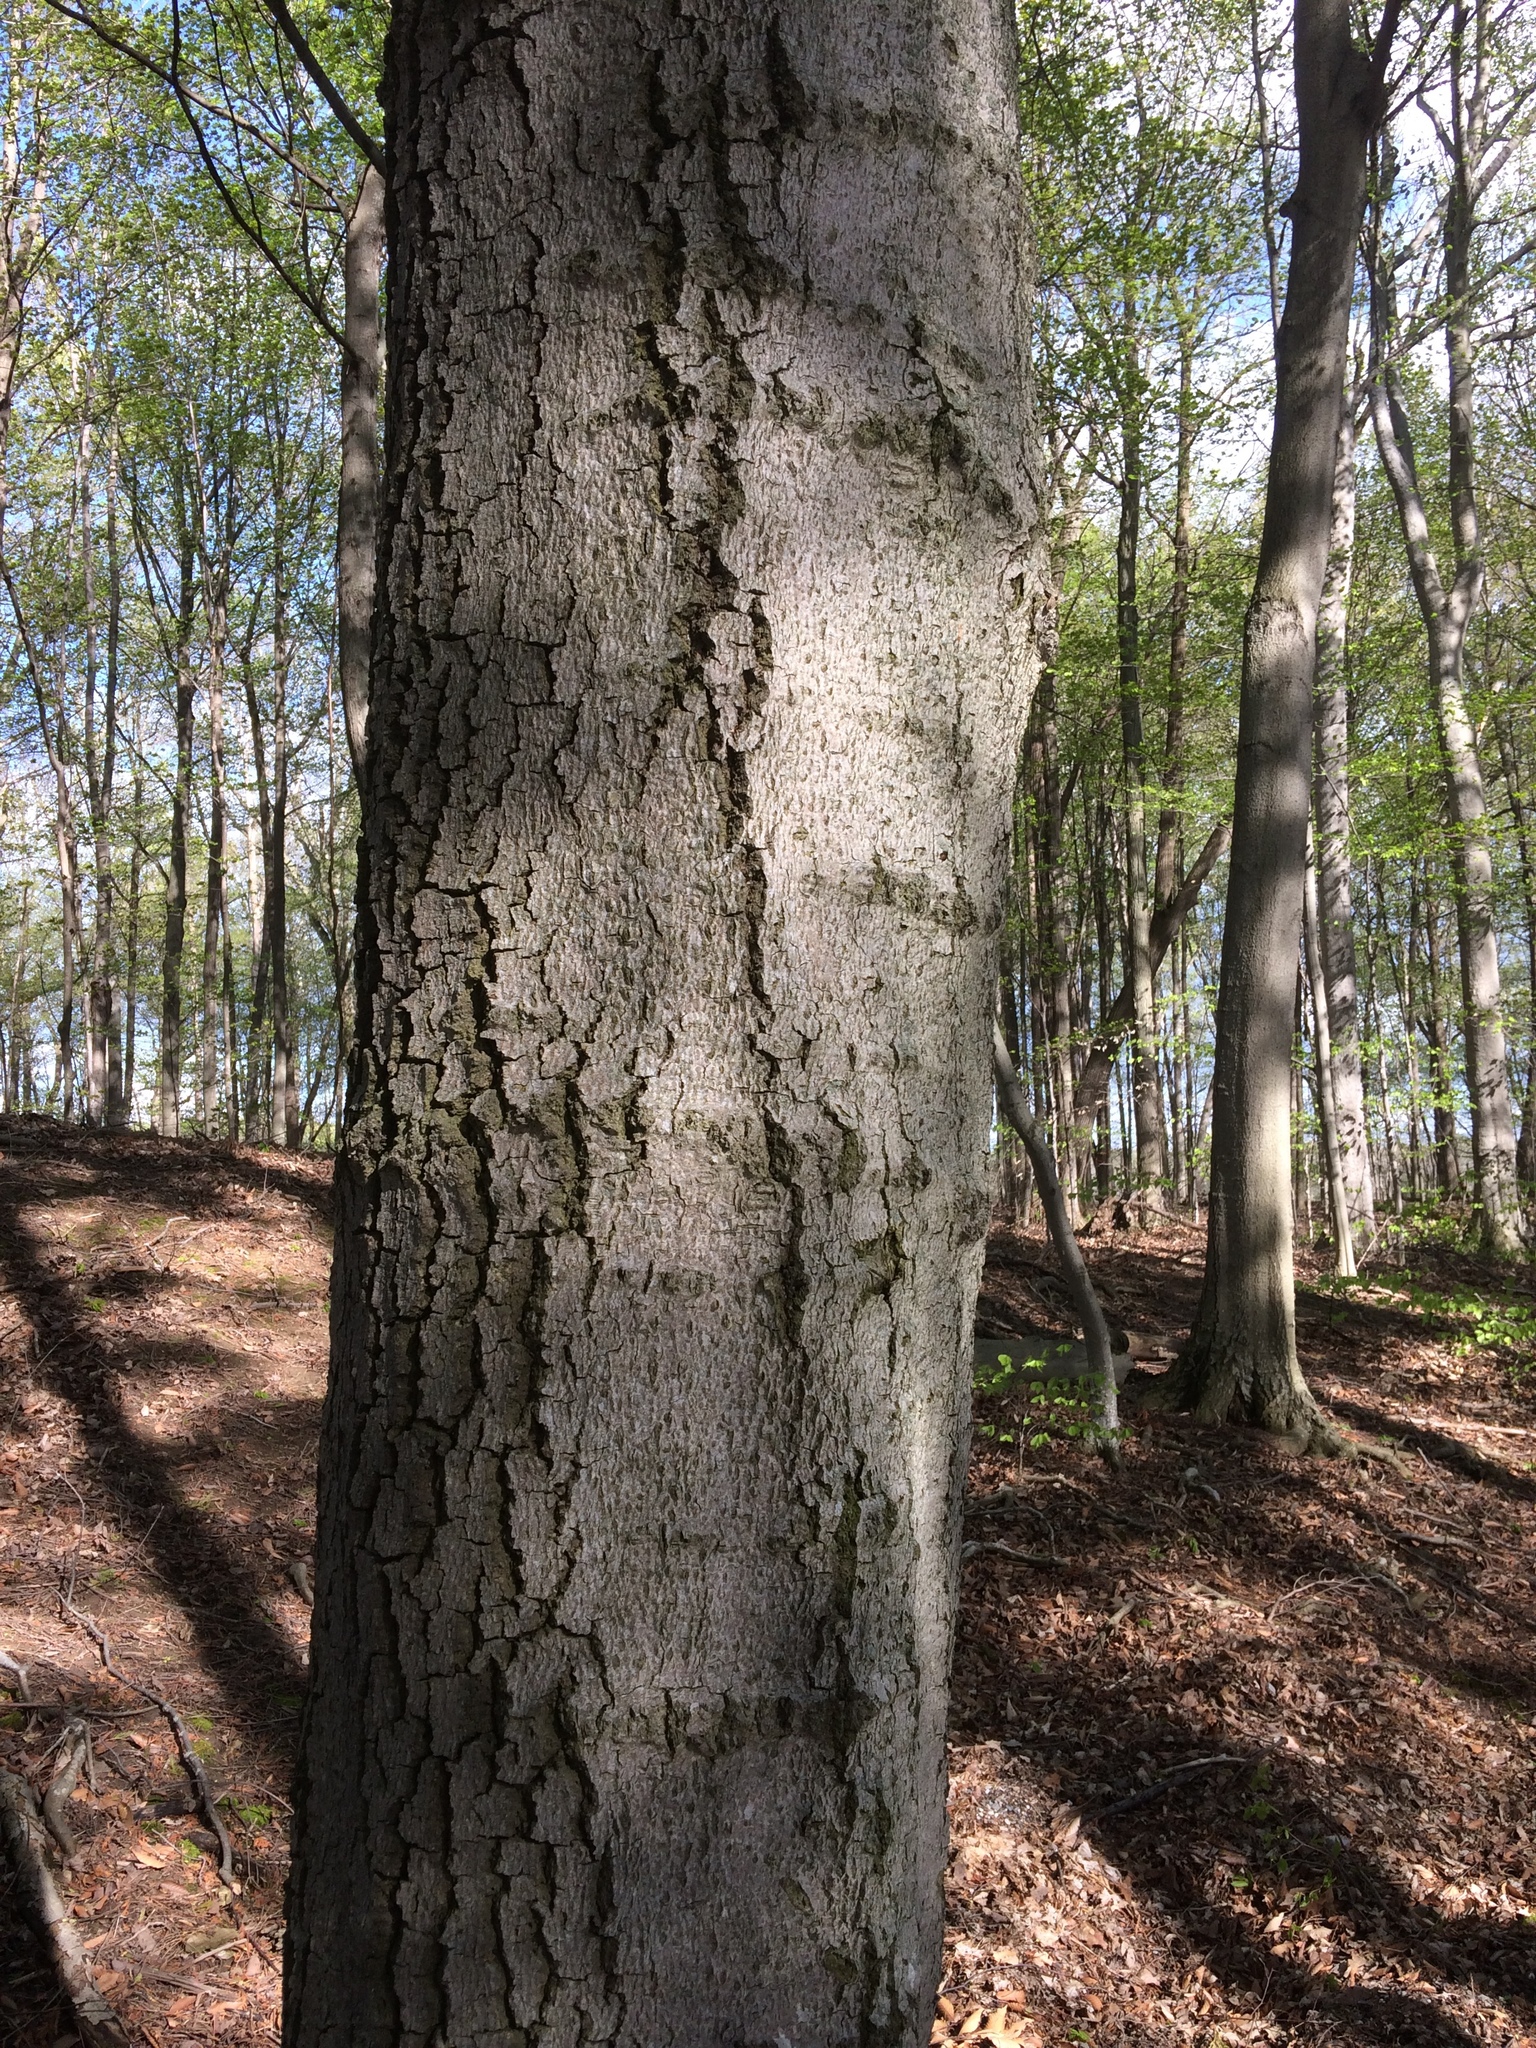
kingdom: Plantae
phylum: Tracheophyta
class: Magnoliopsida
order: Fagales
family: Fagaceae
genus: Fagus
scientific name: Fagus grandifolia
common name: American beech
